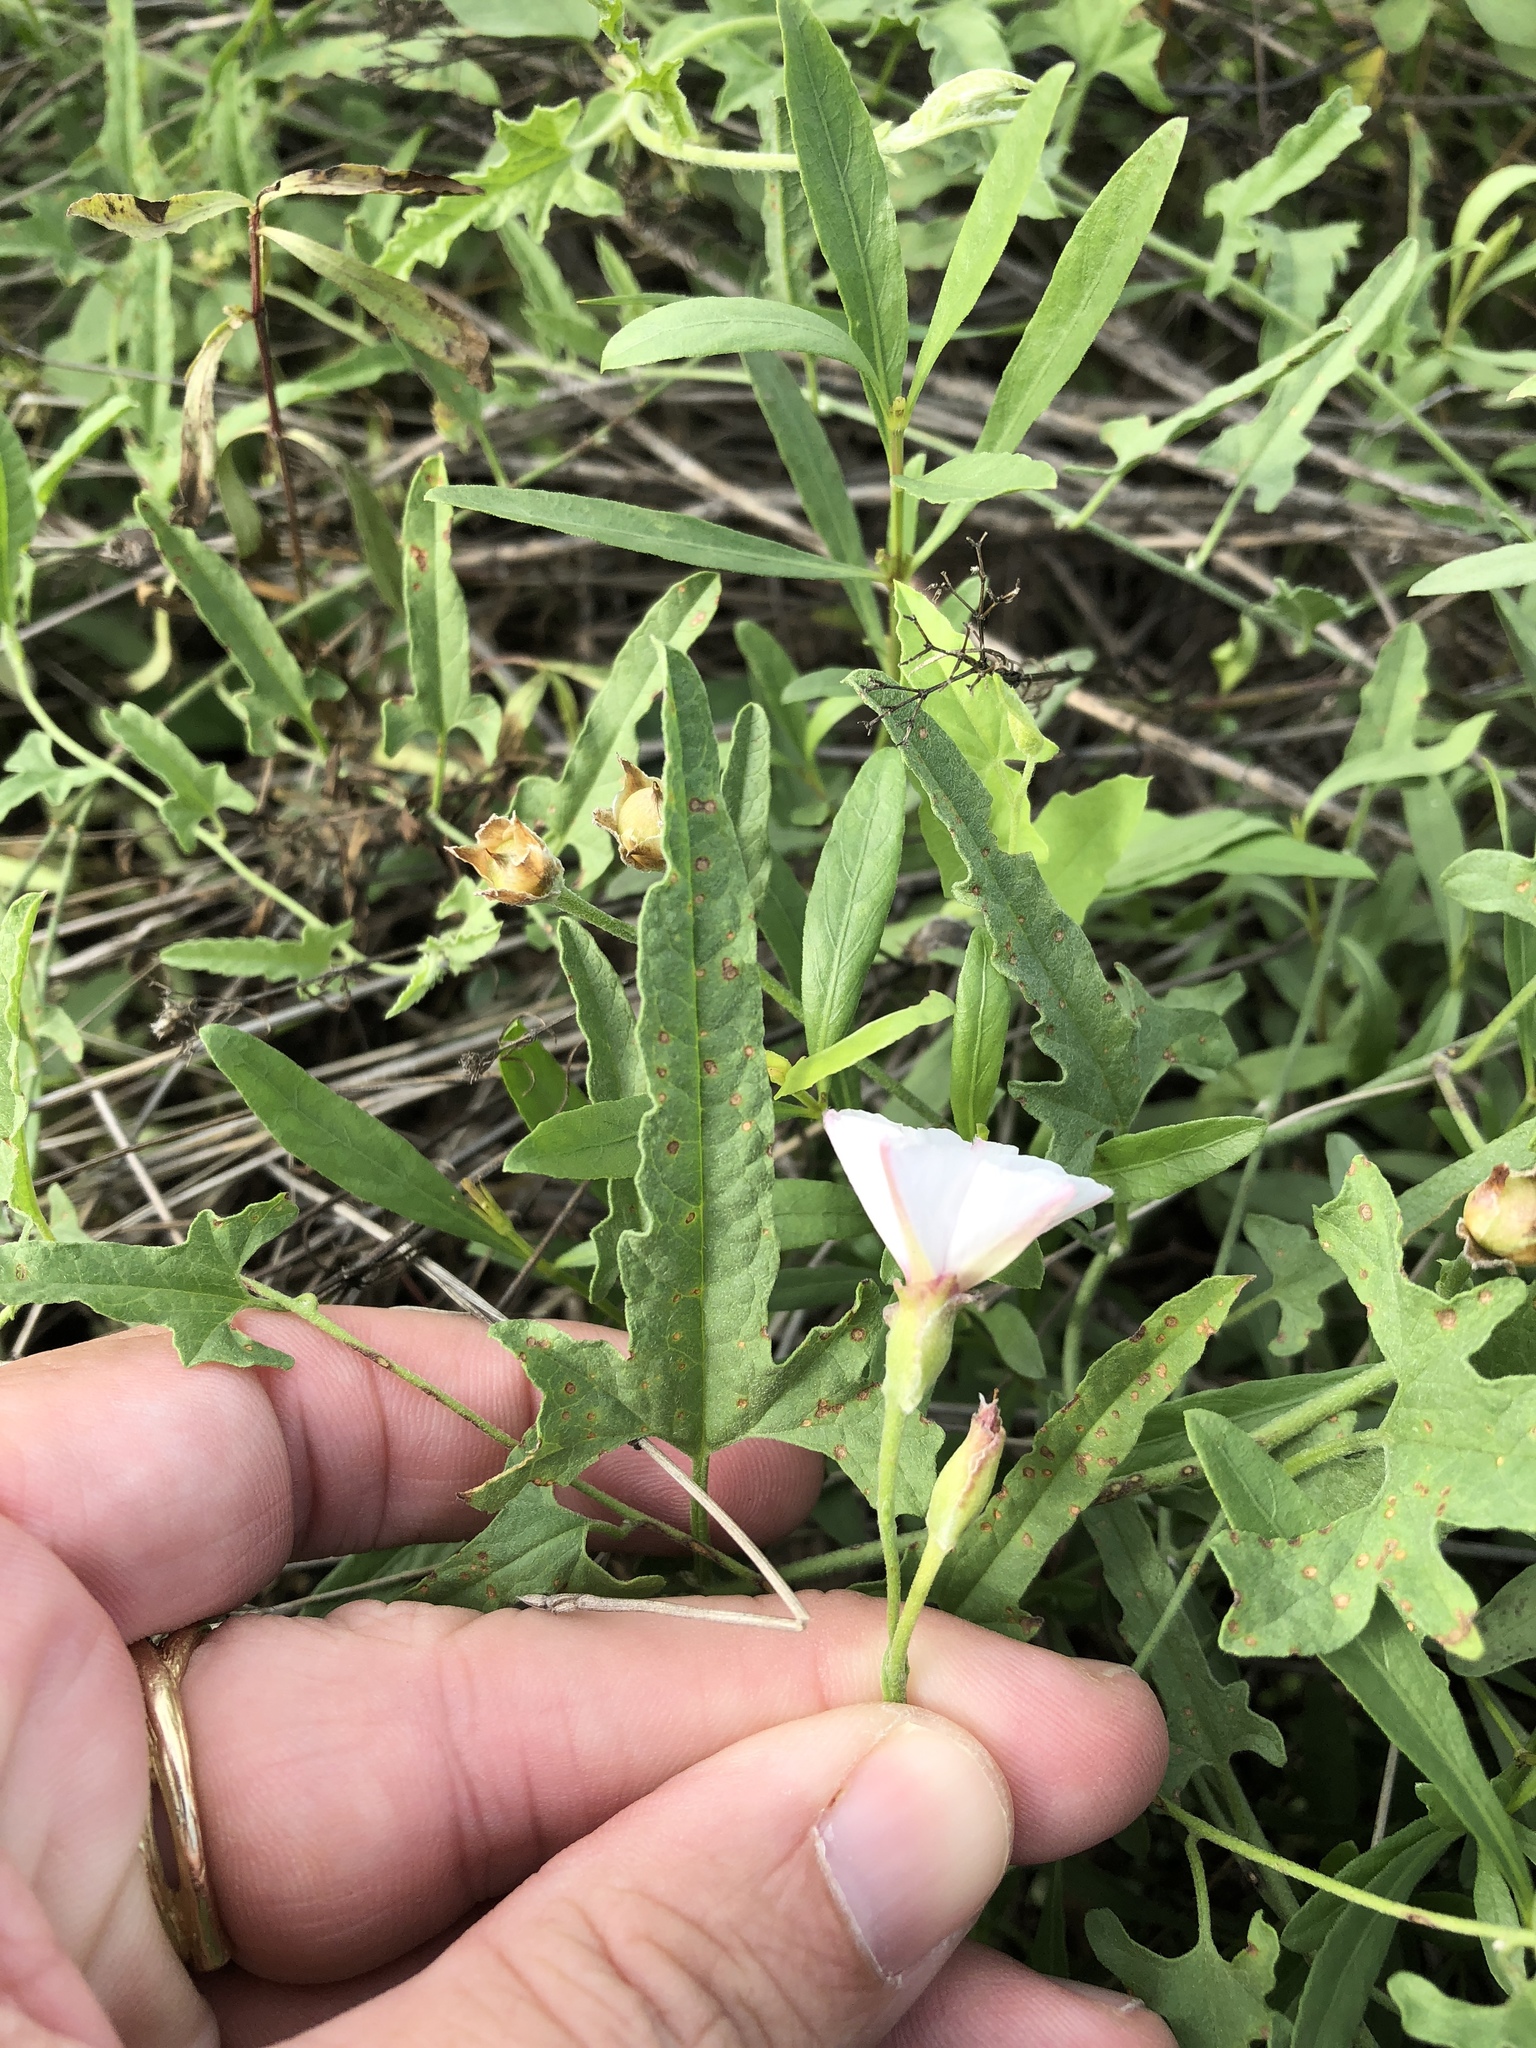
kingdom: Plantae
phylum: Tracheophyta
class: Magnoliopsida
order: Solanales
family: Convolvulaceae
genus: Convolvulus
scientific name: Convolvulus equitans
